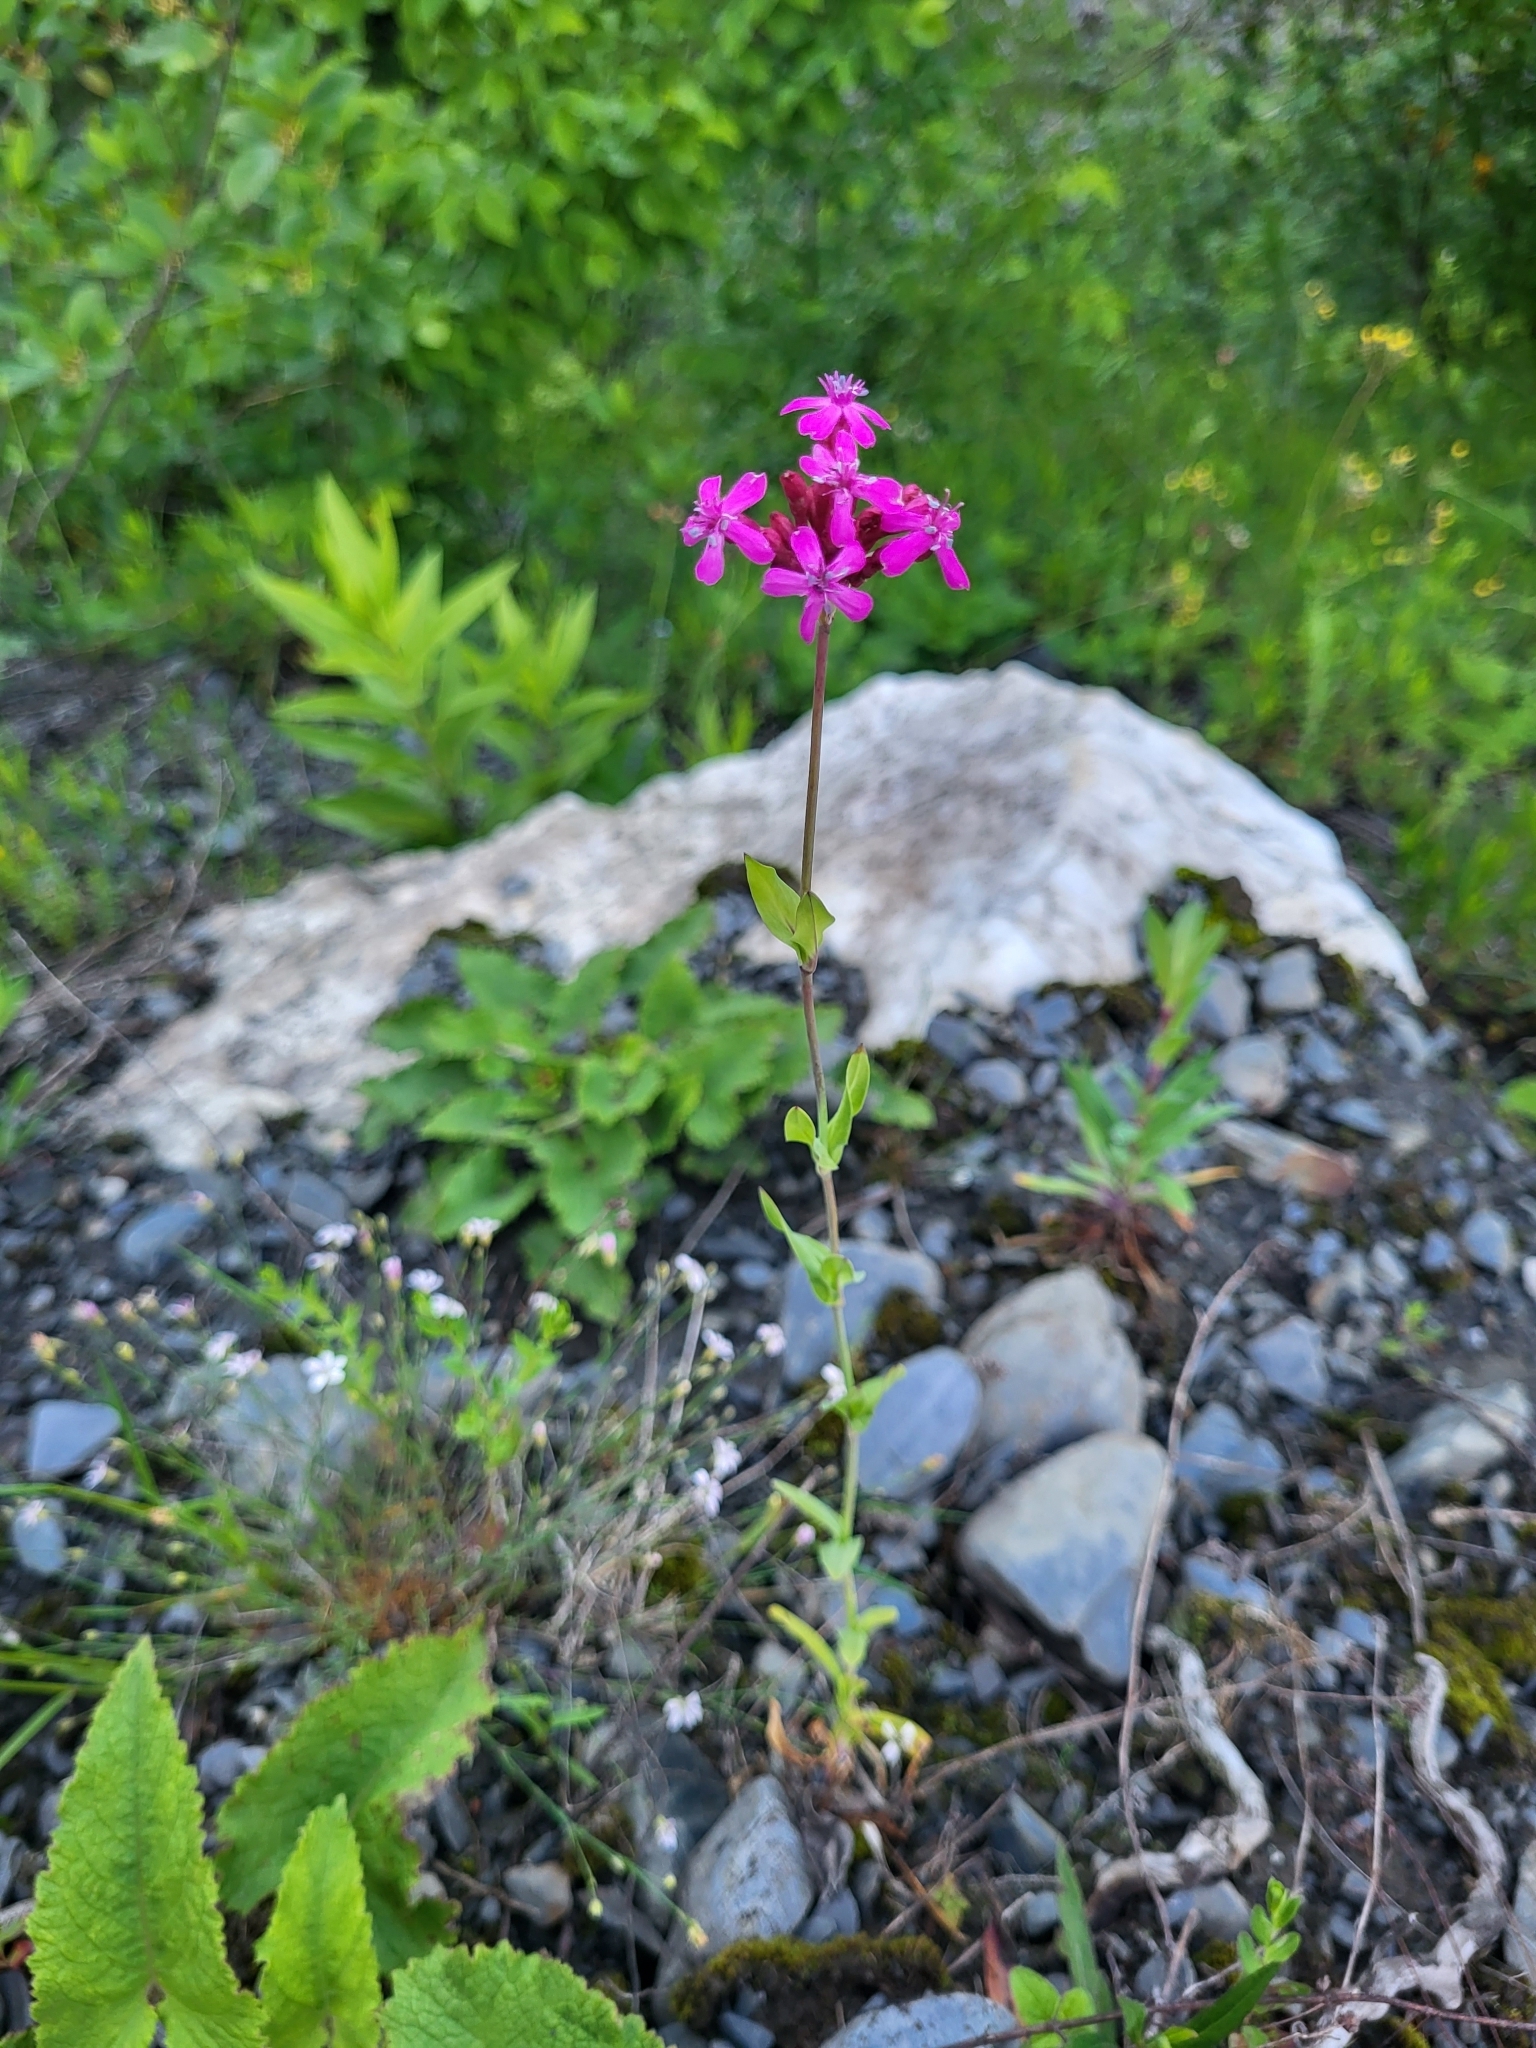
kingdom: Plantae
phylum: Tracheophyta
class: Magnoliopsida
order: Caryophyllales
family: Caryophyllaceae
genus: Atocion
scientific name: Atocion compactum
